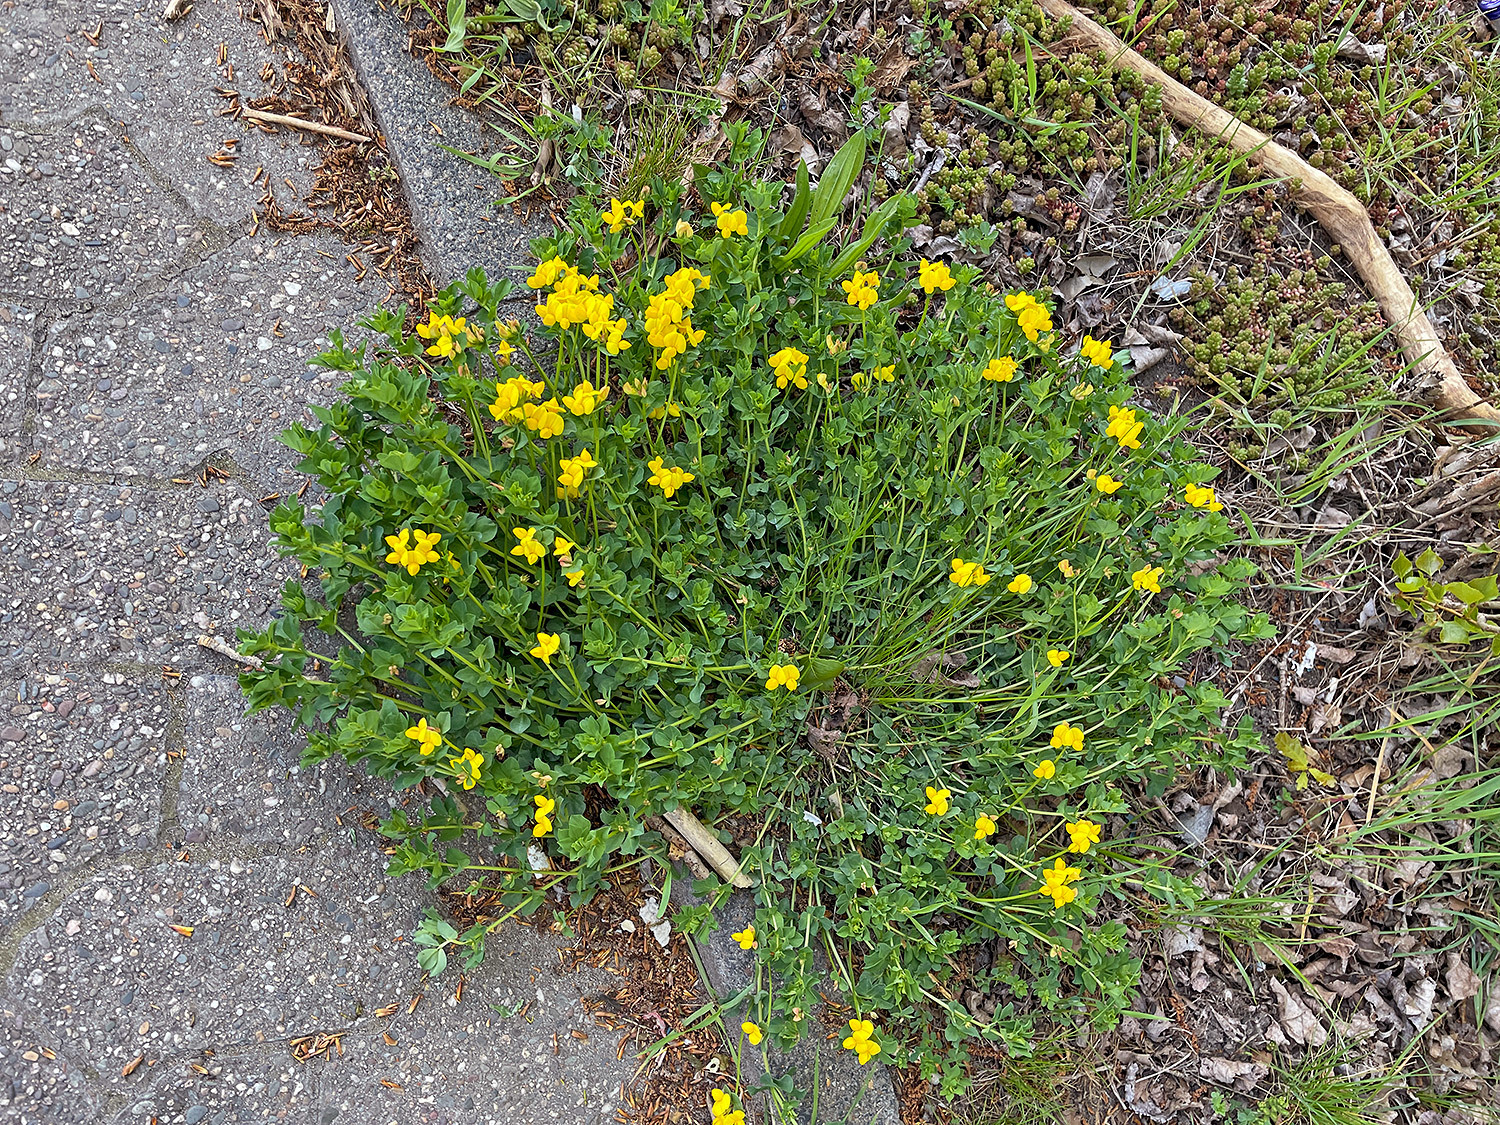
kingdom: Plantae
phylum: Tracheophyta
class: Magnoliopsida
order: Fabales
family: Fabaceae
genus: Lotus
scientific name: Lotus corniculatus
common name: Common bird's-foot-trefoil
